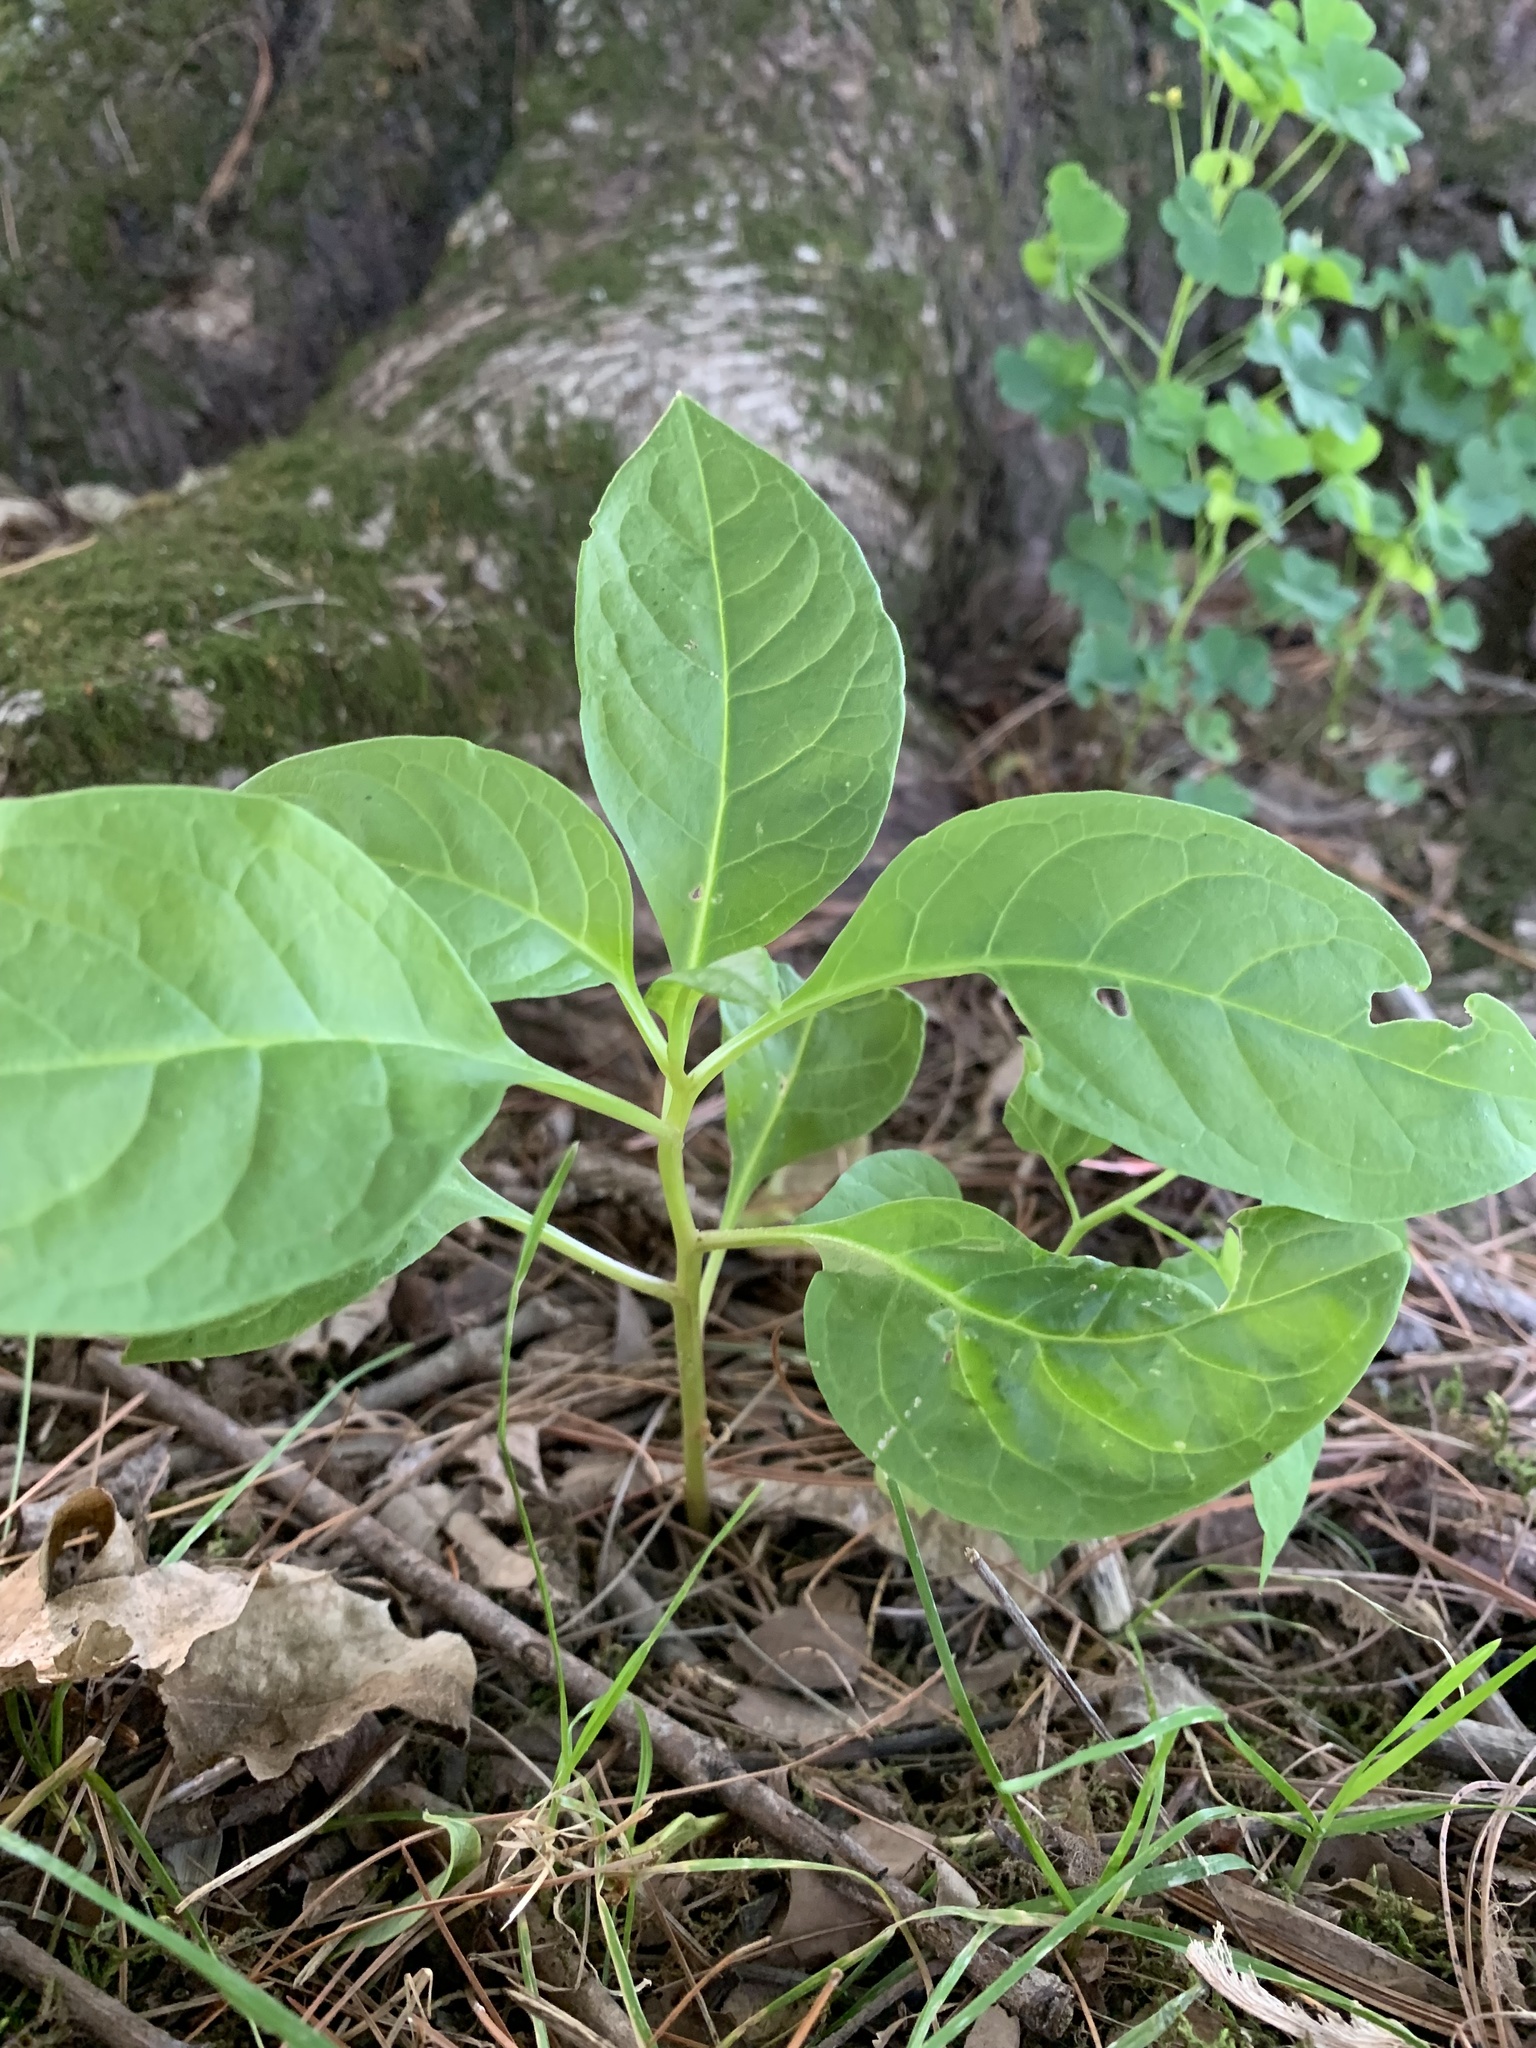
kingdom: Plantae
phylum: Tracheophyta
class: Magnoliopsida
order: Caryophyllales
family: Phytolaccaceae
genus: Phytolacca
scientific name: Phytolacca americana
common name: American pokeweed
